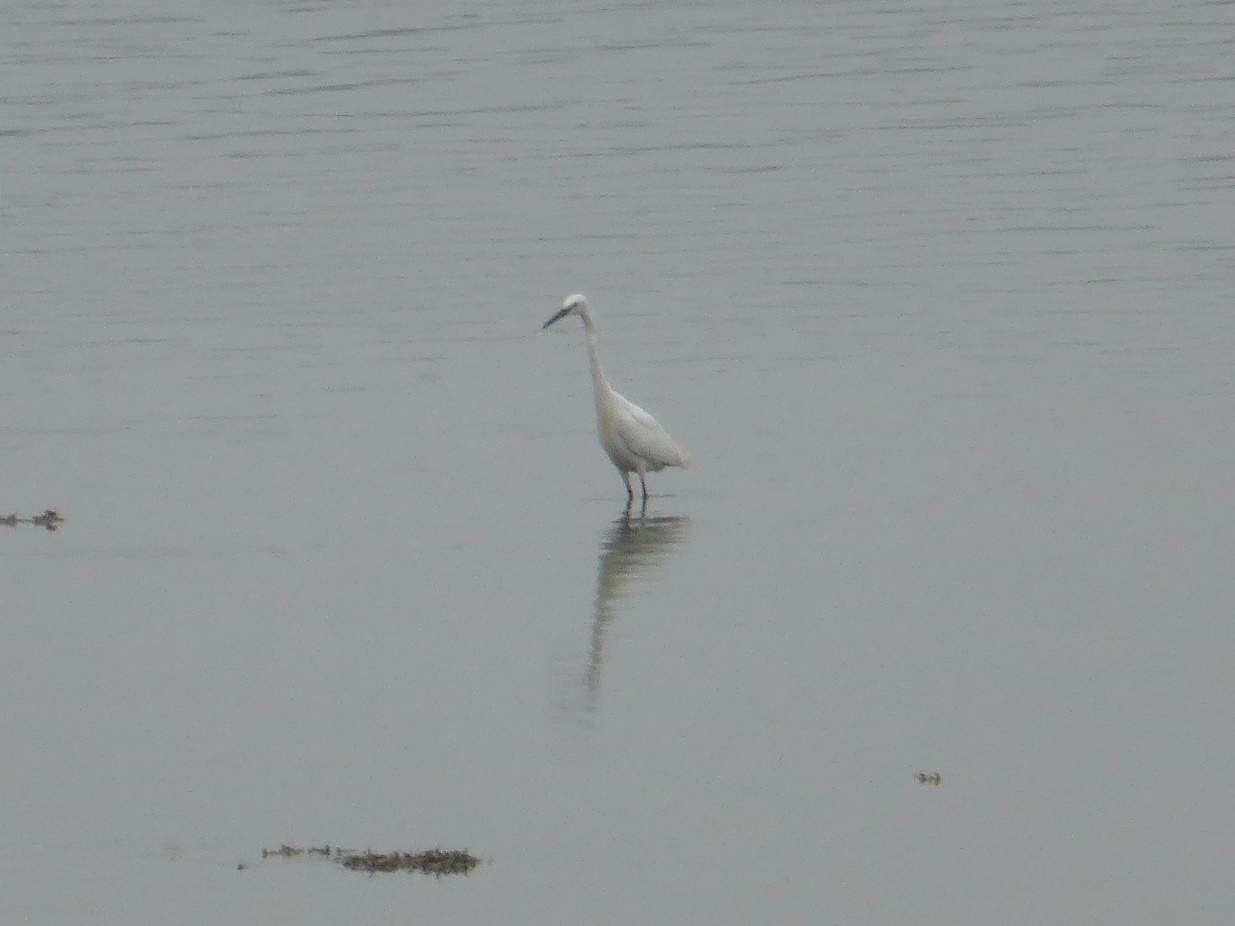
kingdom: Animalia
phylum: Chordata
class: Aves
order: Pelecaniformes
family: Ardeidae
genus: Egretta
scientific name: Egretta garzetta
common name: Little egret
